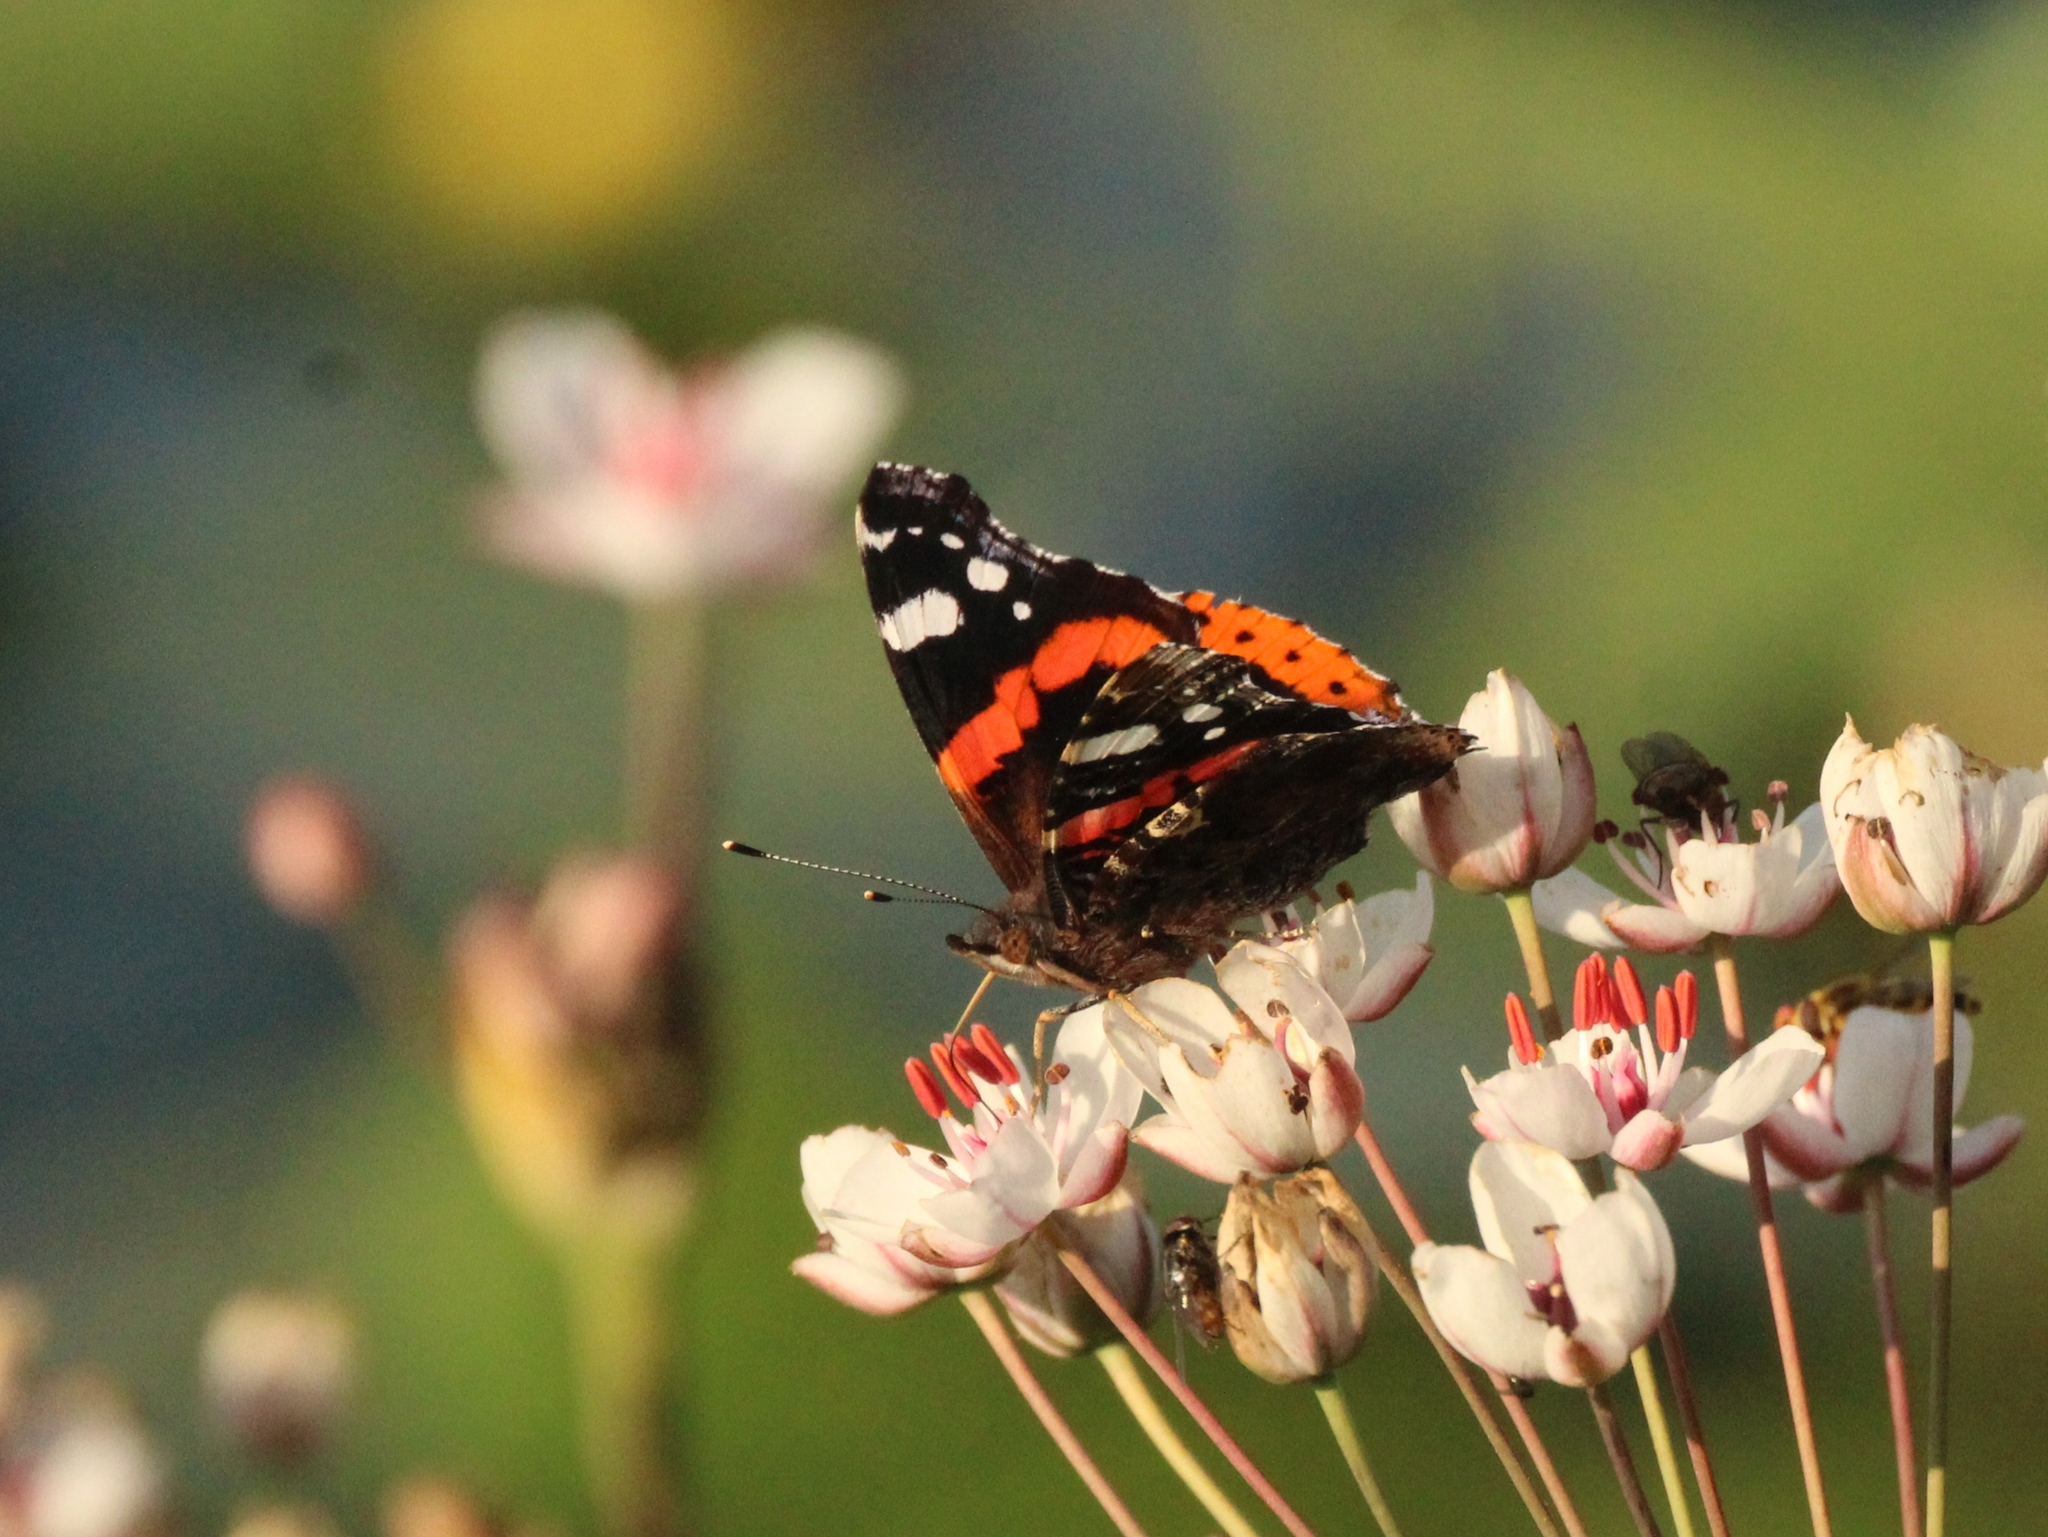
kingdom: Animalia
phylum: Arthropoda
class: Insecta
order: Lepidoptera
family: Nymphalidae
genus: Vanessa
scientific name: Vanessa atalanta
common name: Red admiral
